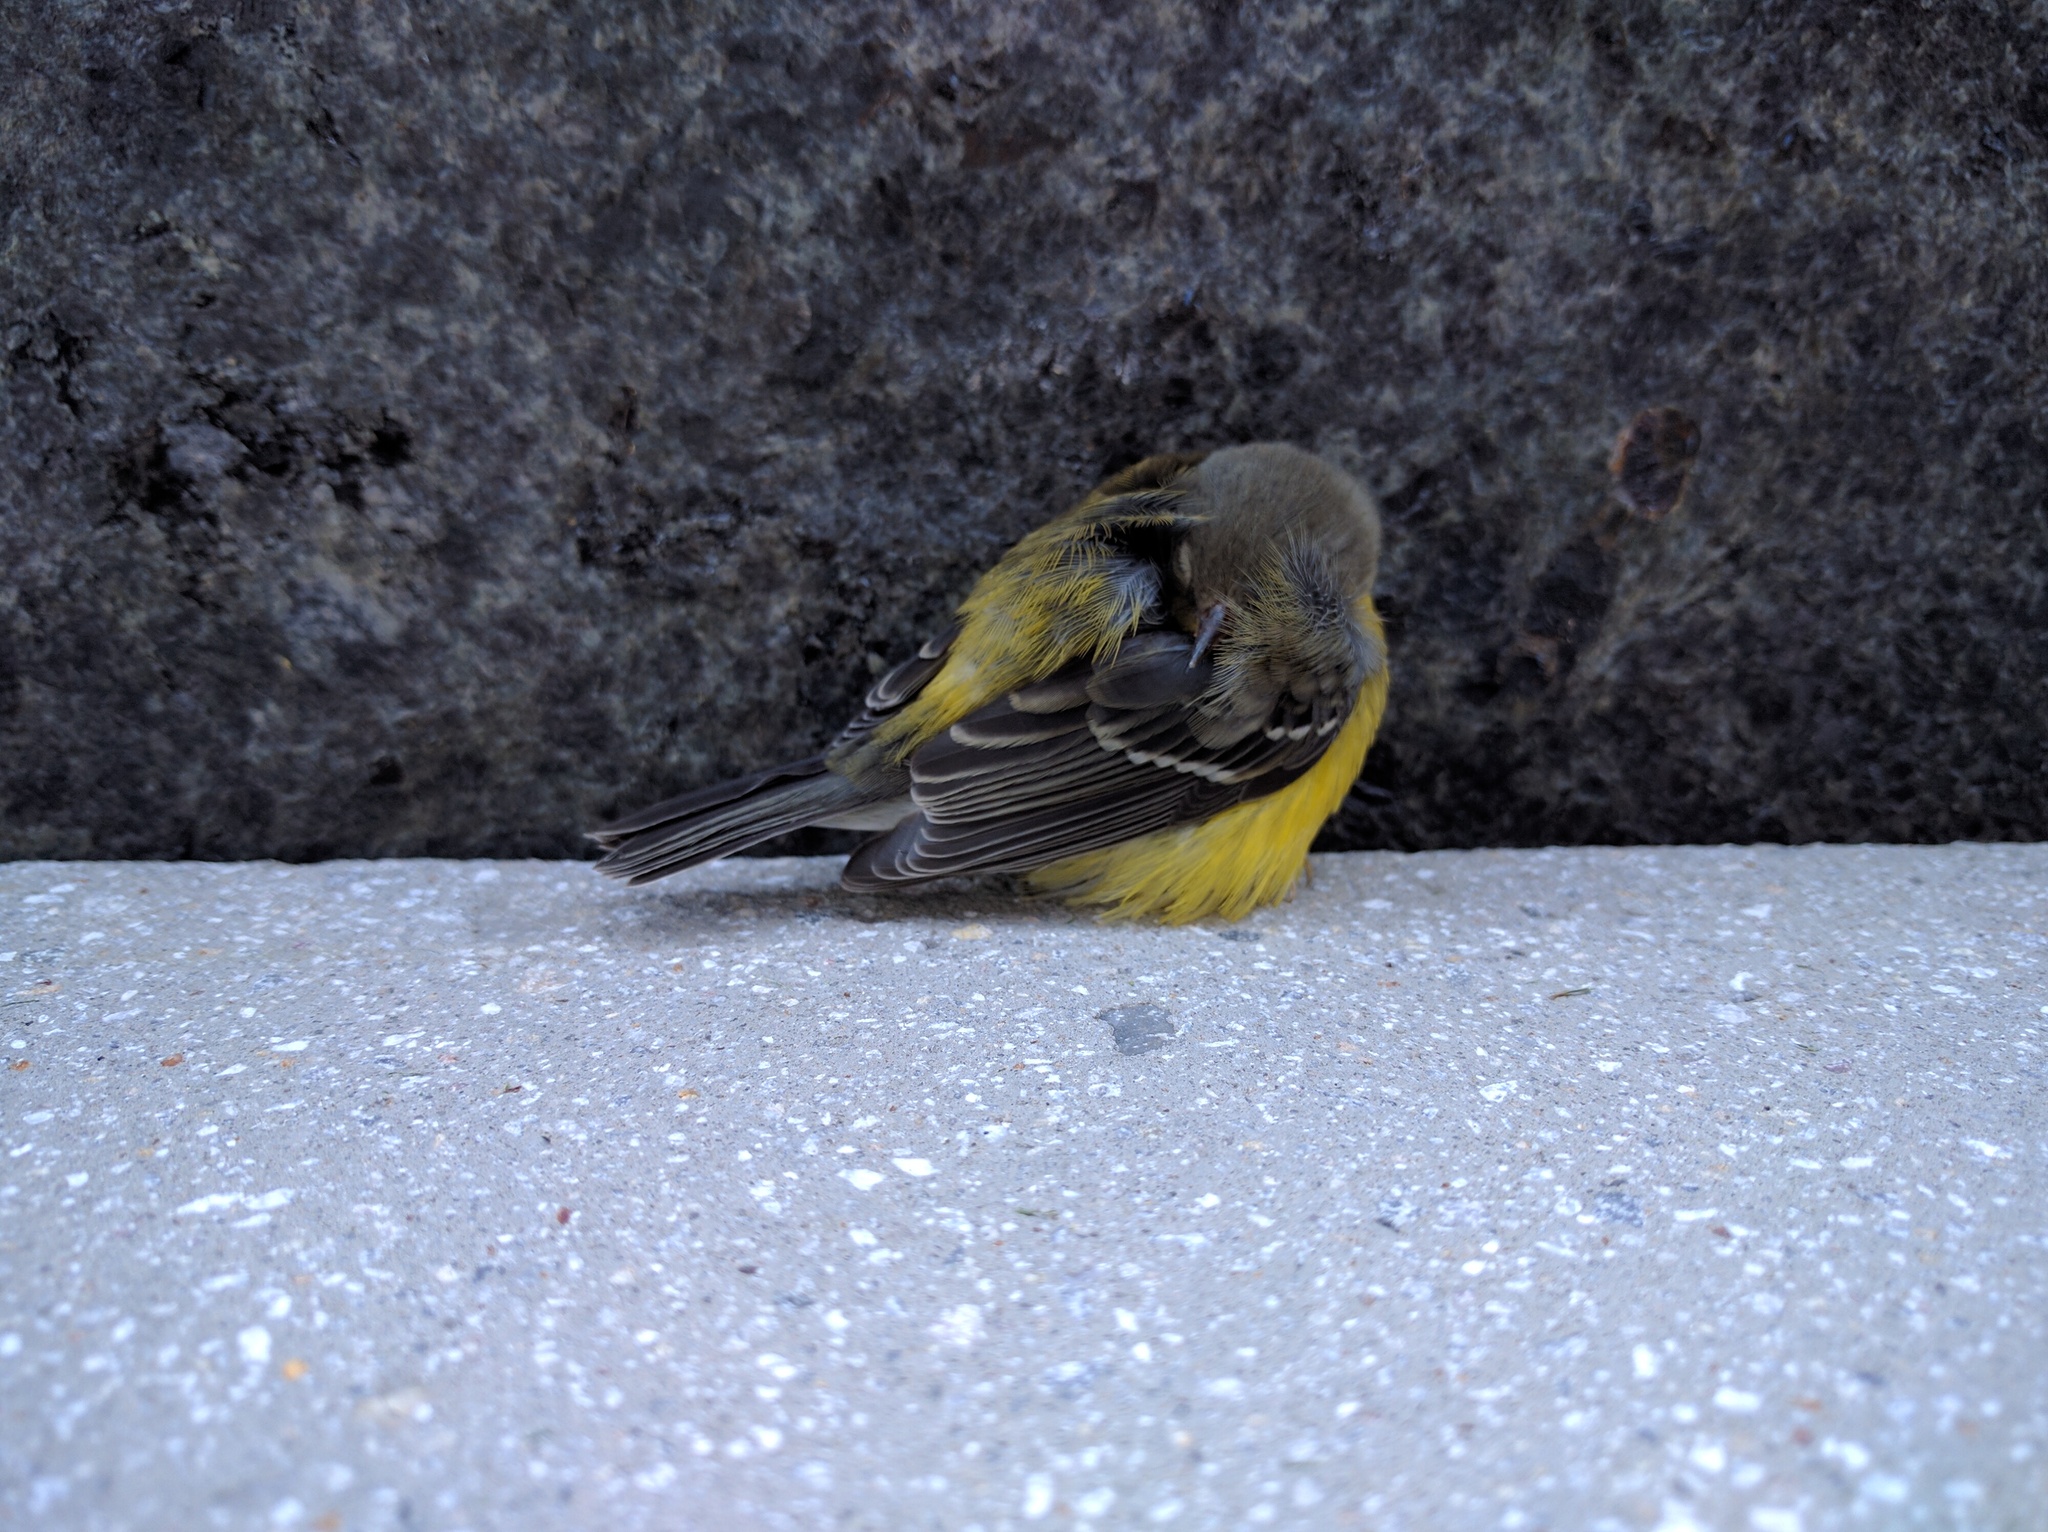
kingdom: Animalia
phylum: Chordata
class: Aves
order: Passeriformes
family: Parulidae
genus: Setophaga
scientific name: Setophaga magnolia
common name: Magnolia warbler
